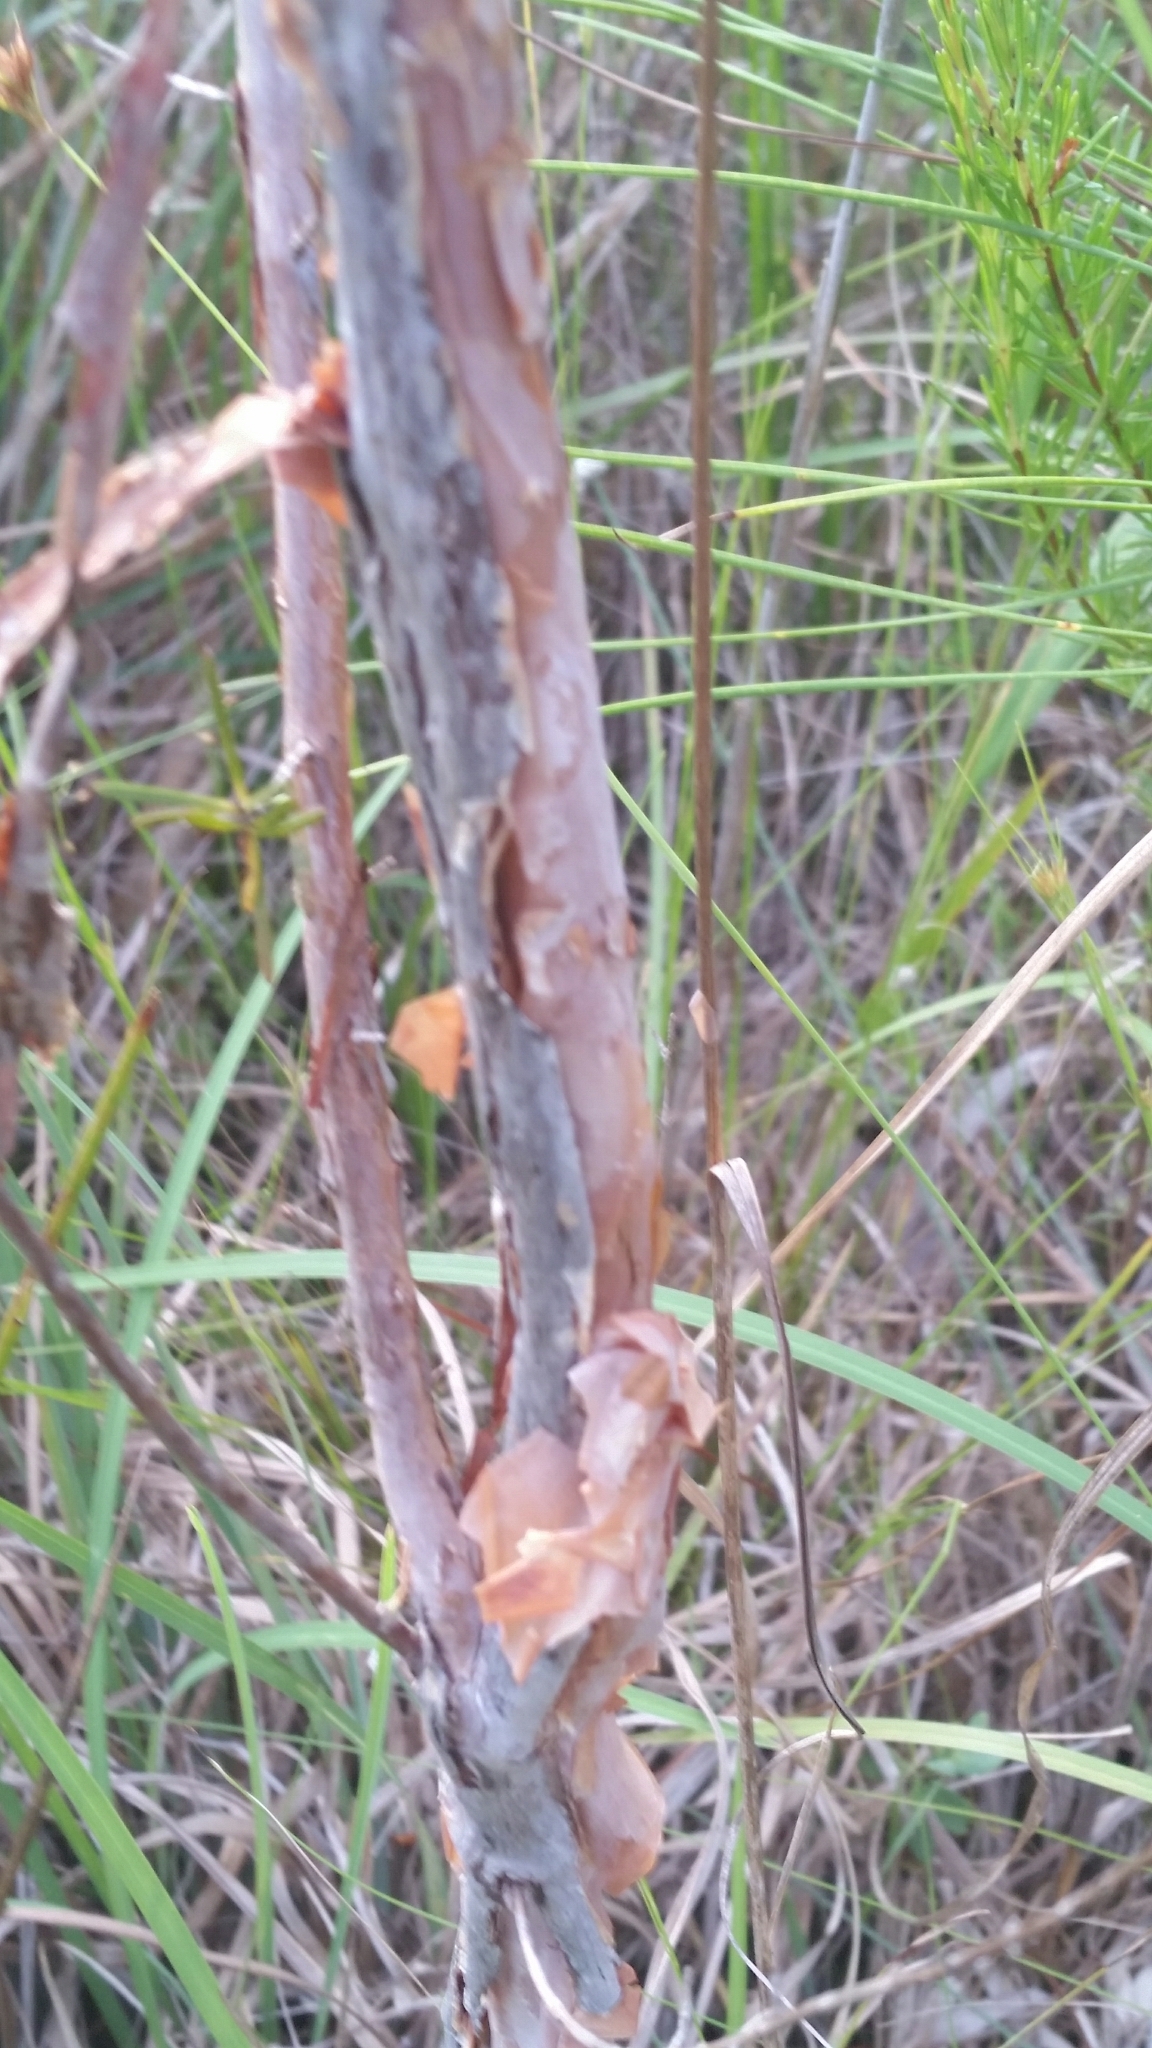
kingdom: Plantae
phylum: Tracheophyta
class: Magnoliopsida
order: Malpighiales
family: Hypericaceae
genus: Hypericum
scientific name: Hypericum fasciculatum
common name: Peelbark st. john's wort
